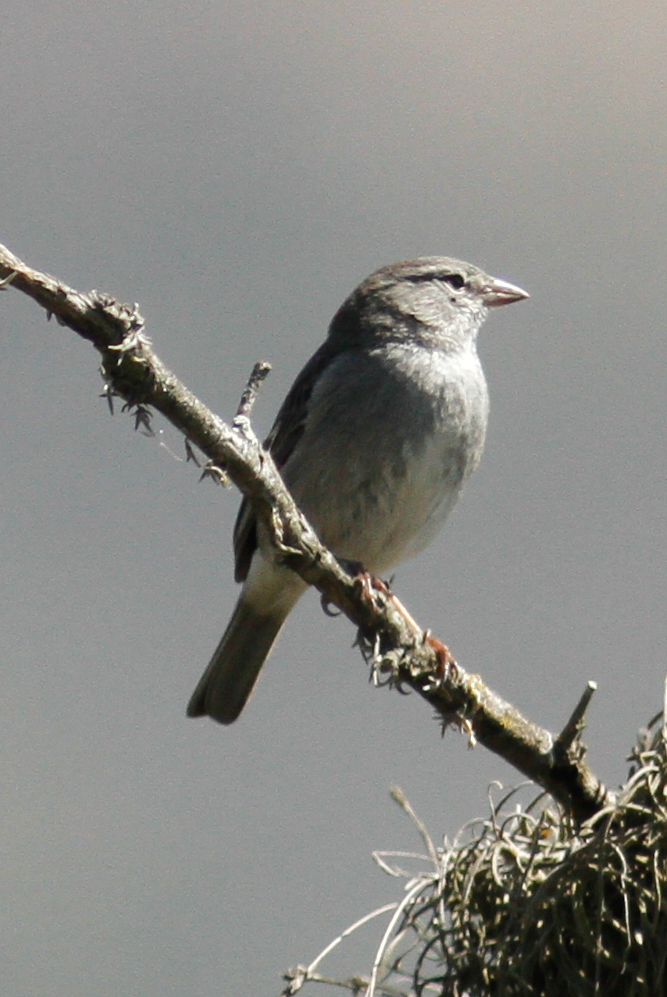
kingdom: Animalia
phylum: Chordata
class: Aves
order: Passeriformes
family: Thraupidae
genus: Geospizopsis
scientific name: Geospizopsis plebejus
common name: Ash-breasted sierra-finch
